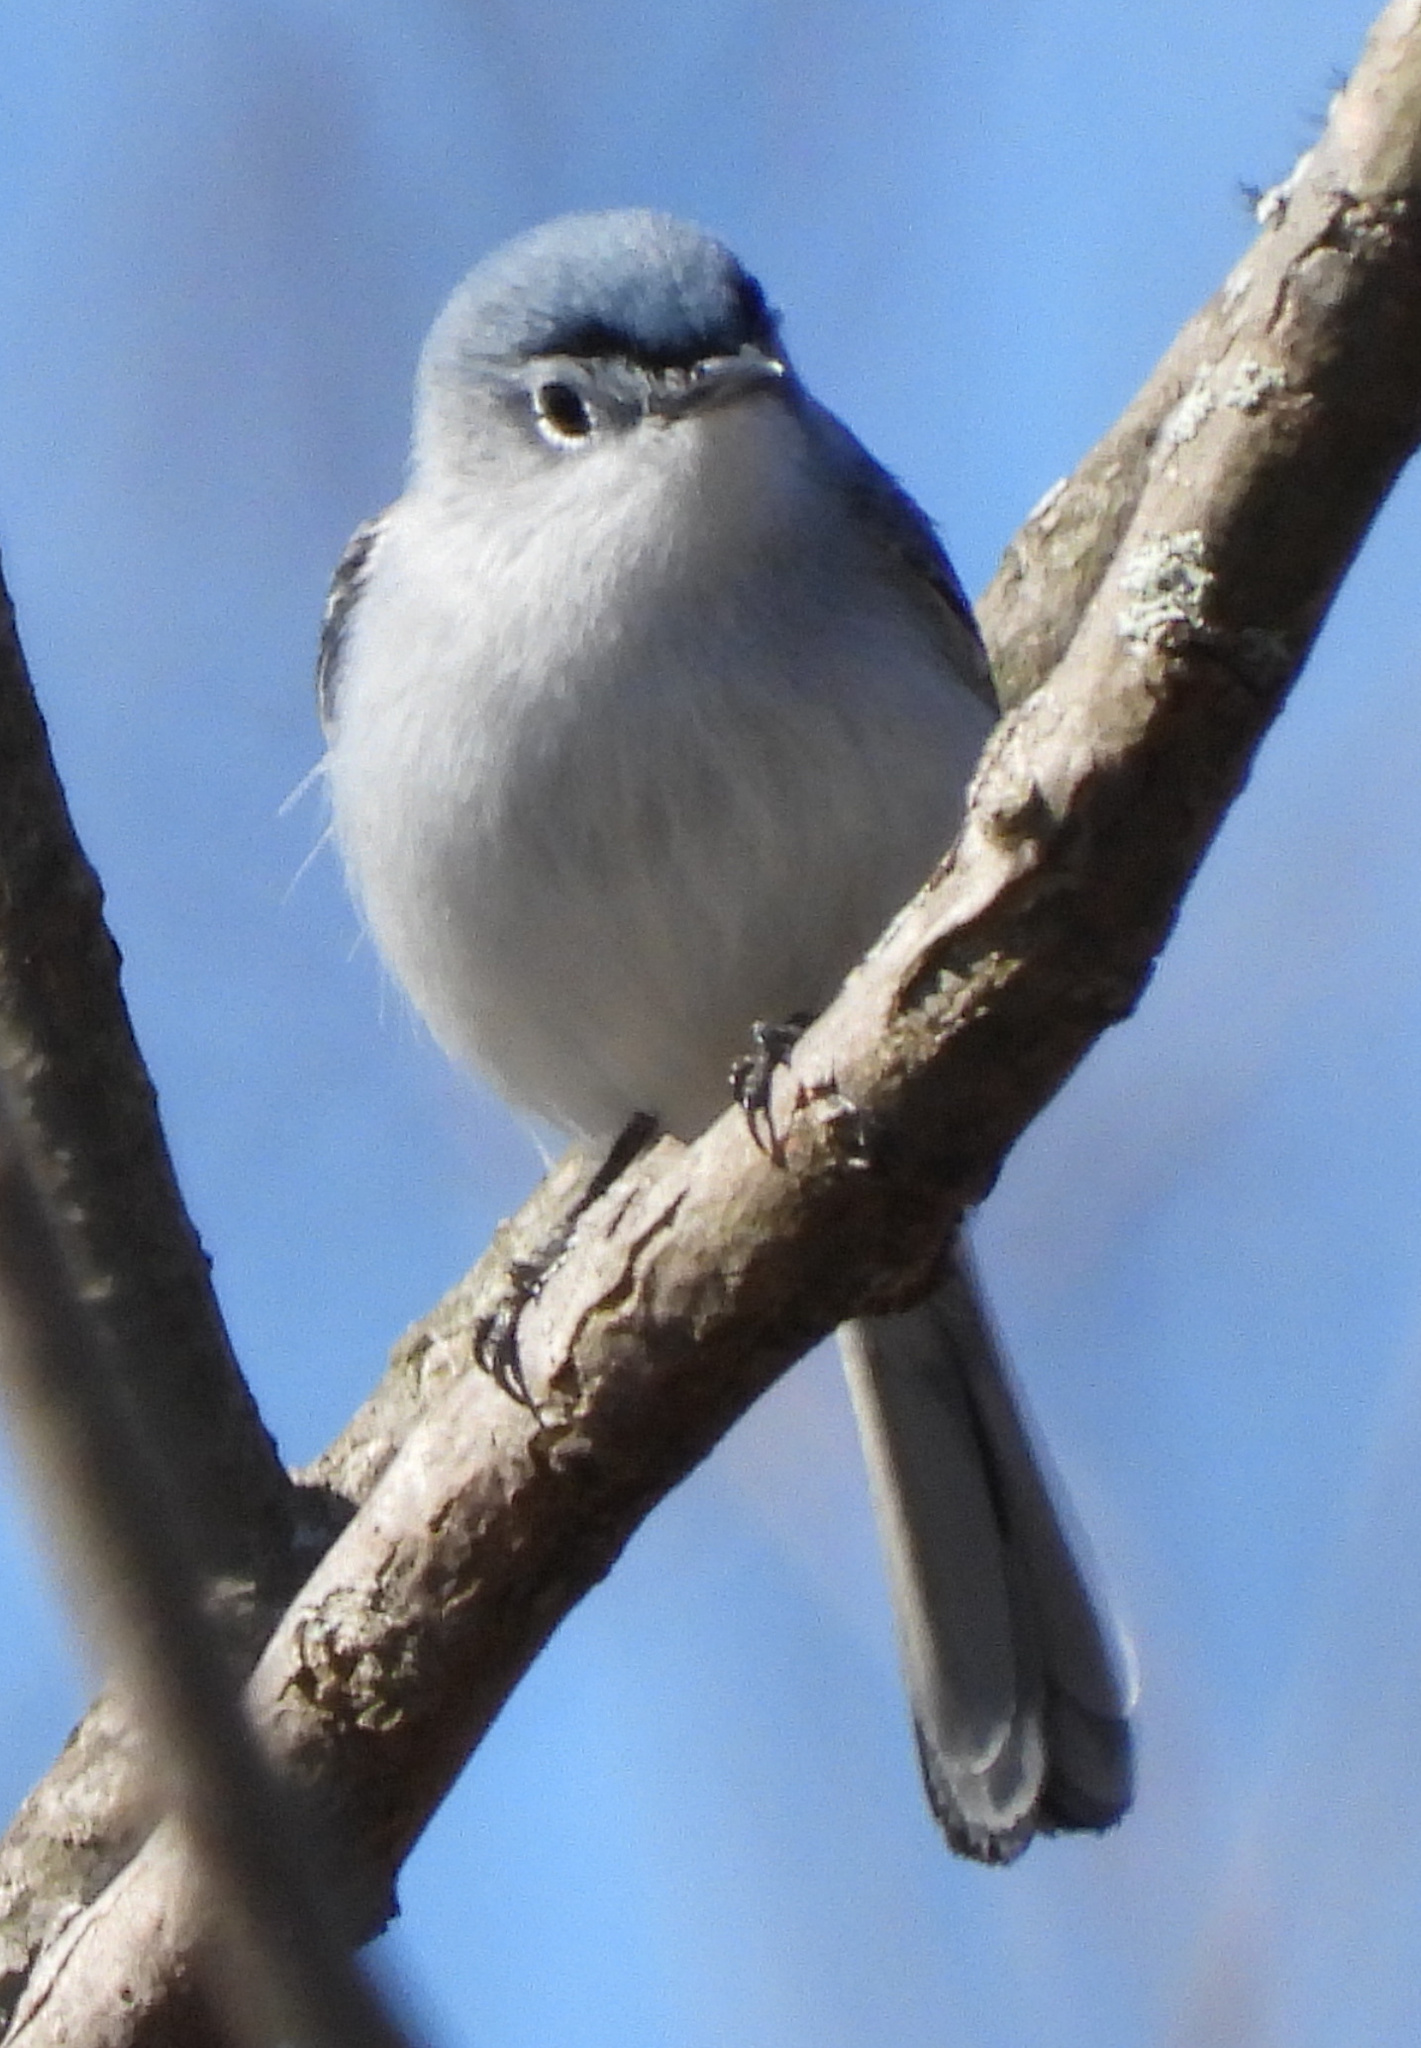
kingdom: Animalia
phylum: Chordata
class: Aves
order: Passeriformes
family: Polioptilidae
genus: Polioptila
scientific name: Polioptila caerulea
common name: Blue-gray gnatcatcher
